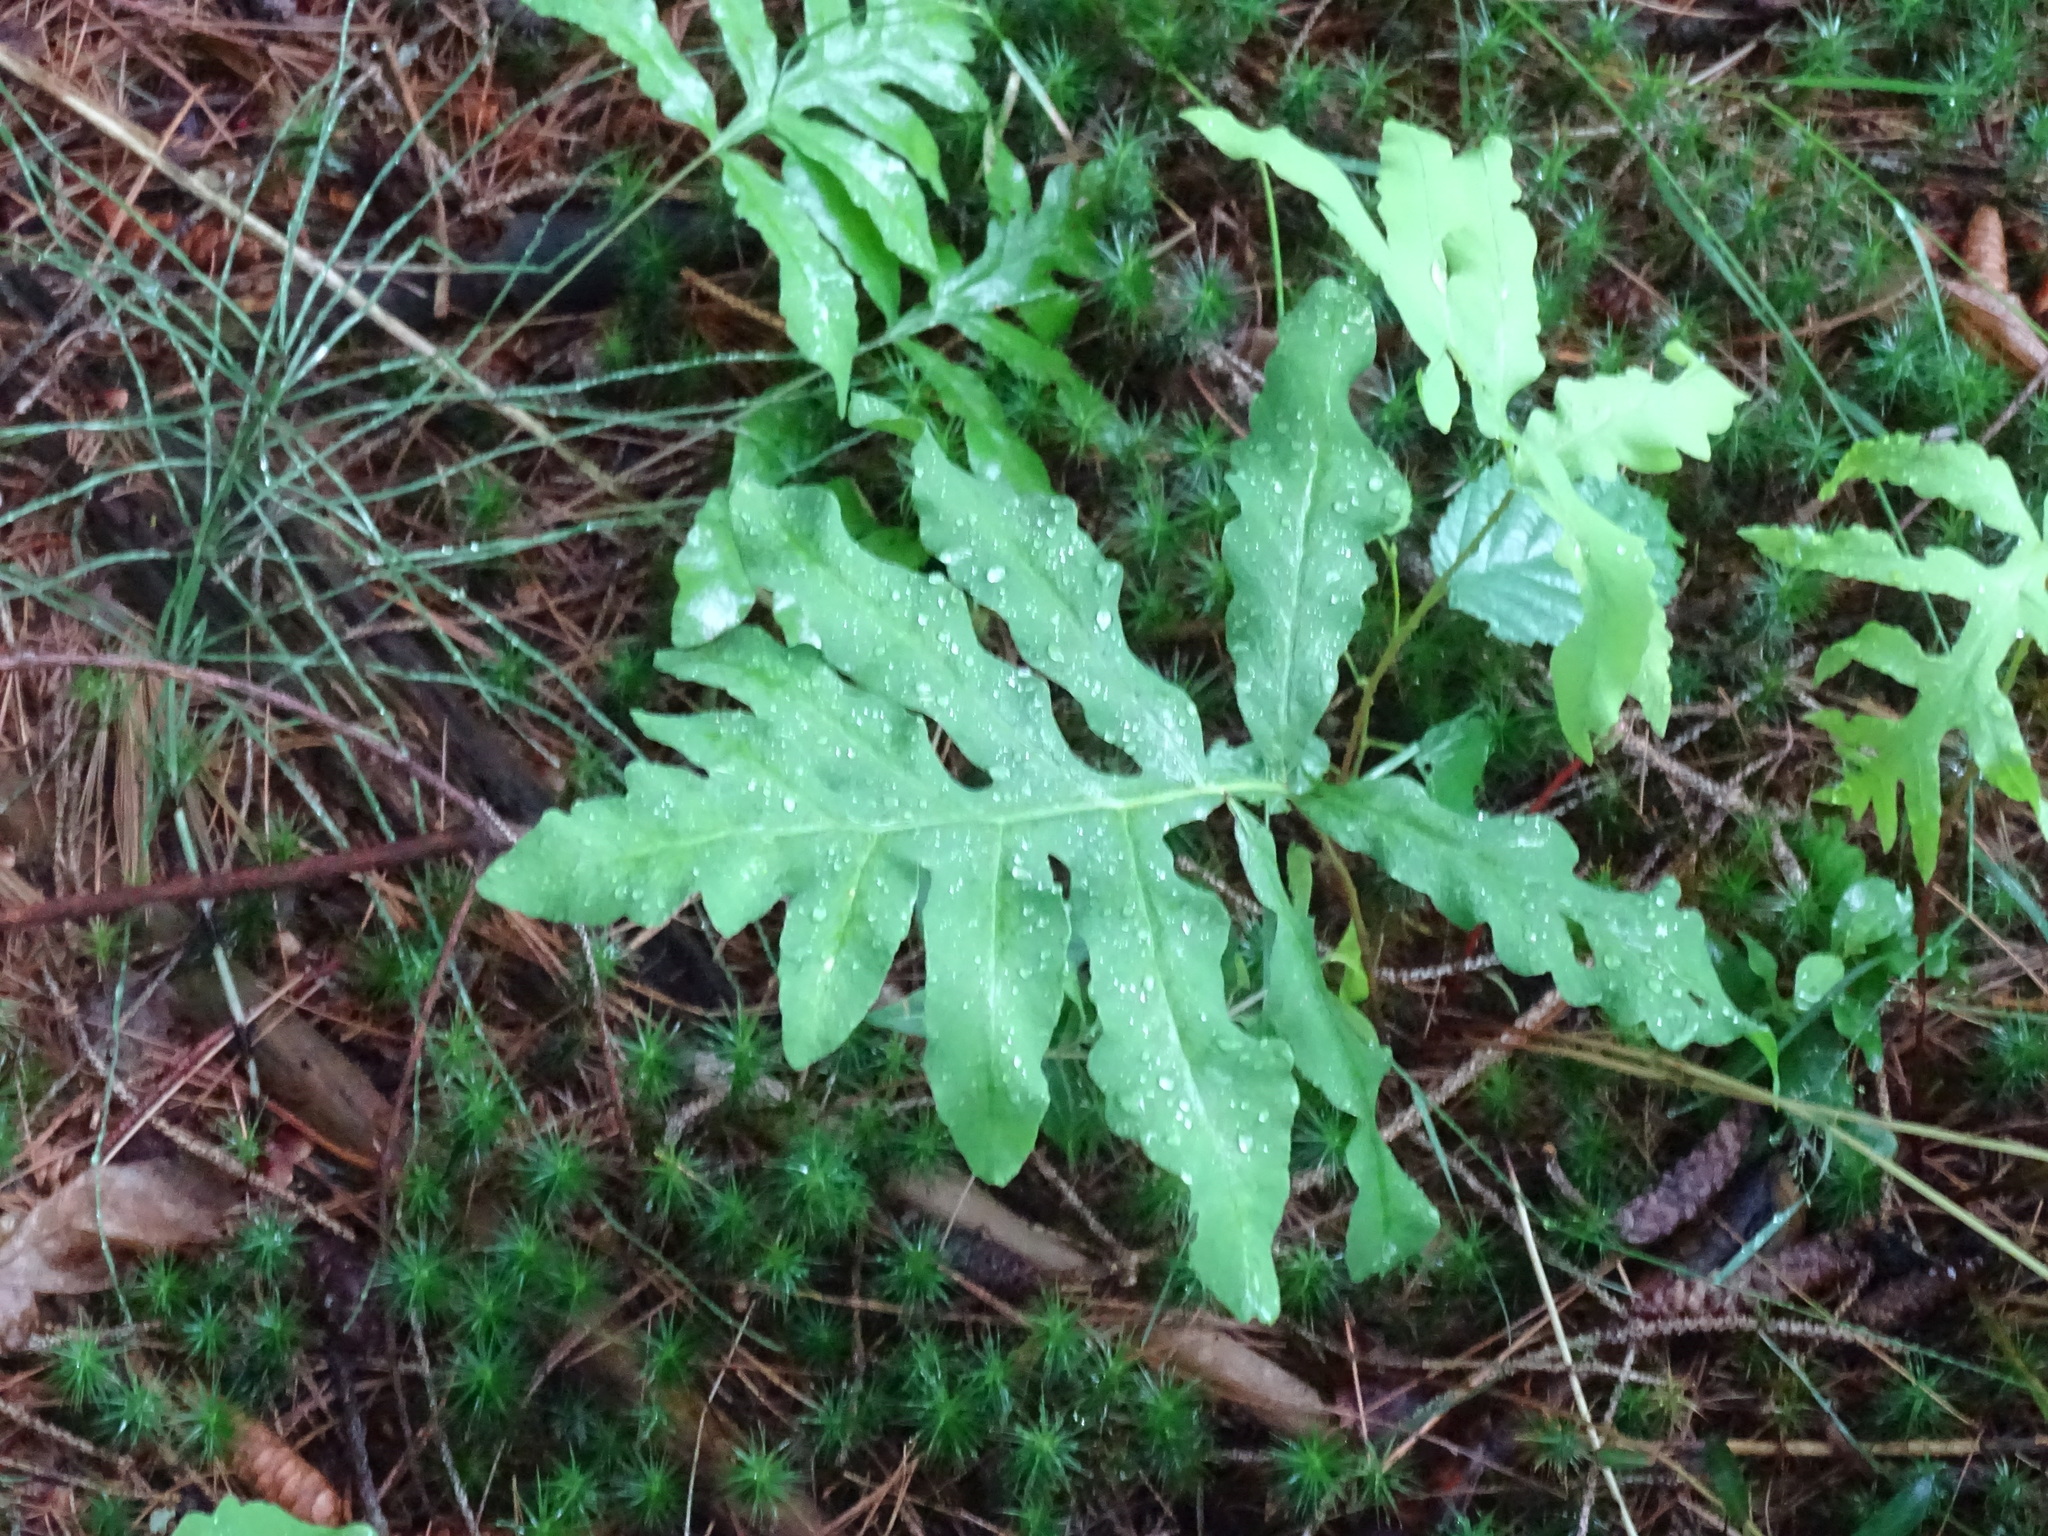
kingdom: Plantae
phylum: Tracheophyta
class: Polypodiopsida
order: Polypodiales
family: Onocleaceae
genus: Onoclea
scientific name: Onoclea sensibilis
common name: Sensitive fern
